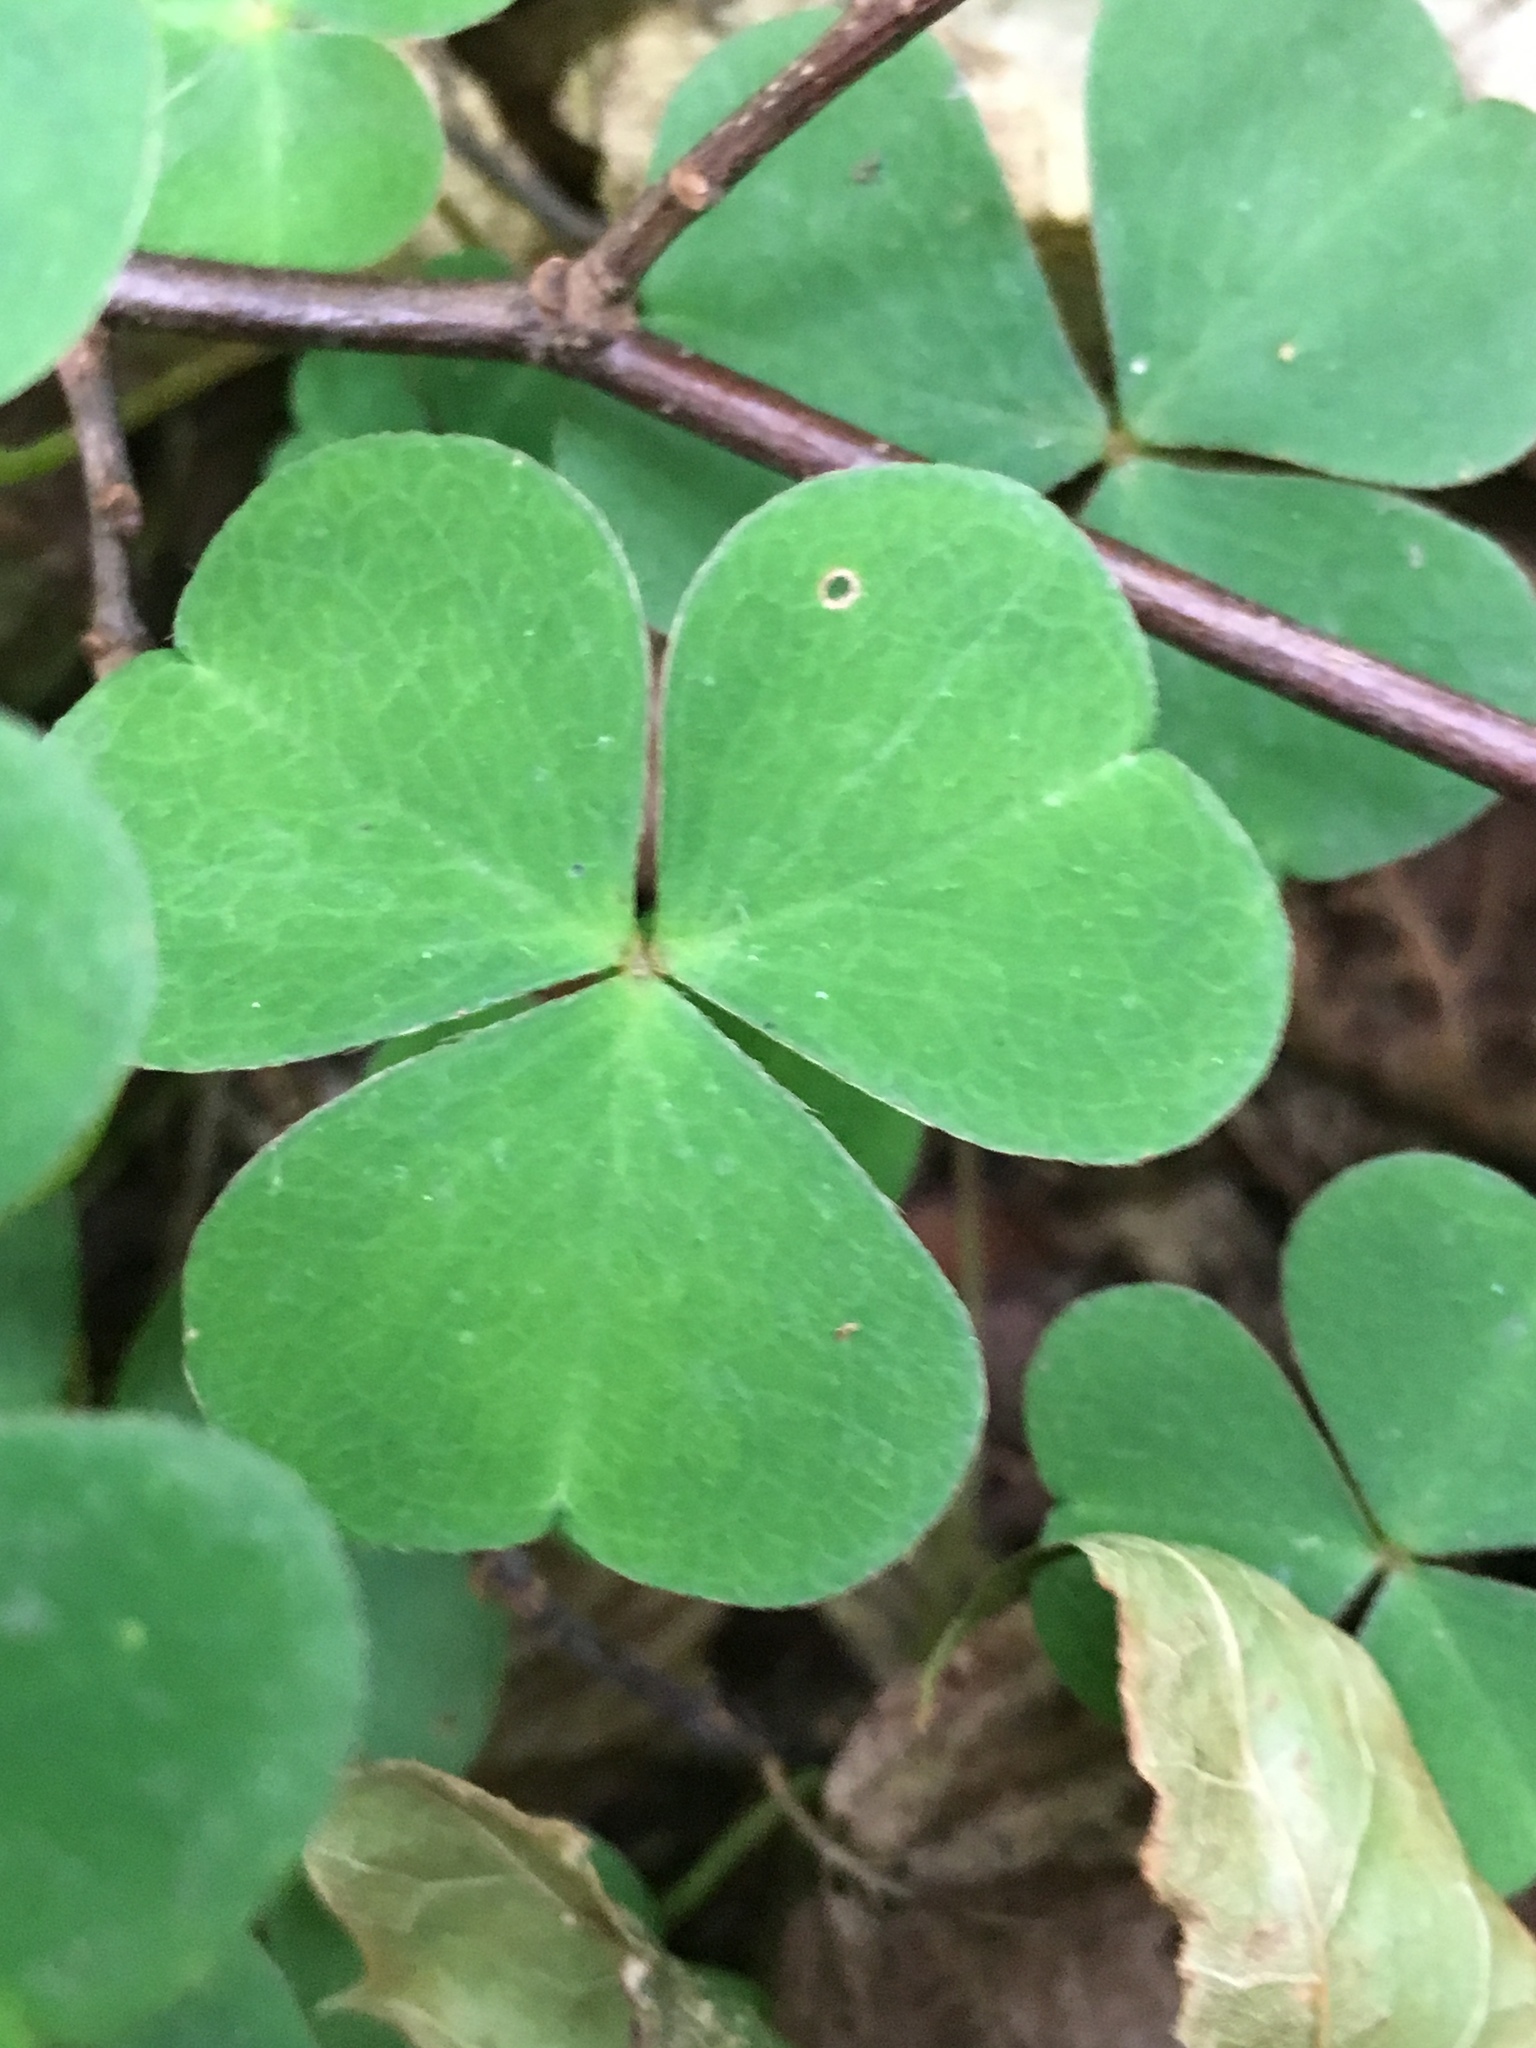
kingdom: Plantae
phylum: Tracheophyta
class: Magnoliopsida
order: Oxalidales
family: Oxalidaceae
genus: Oxalis
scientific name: Oxalis acetosella
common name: Wood-sorrel
